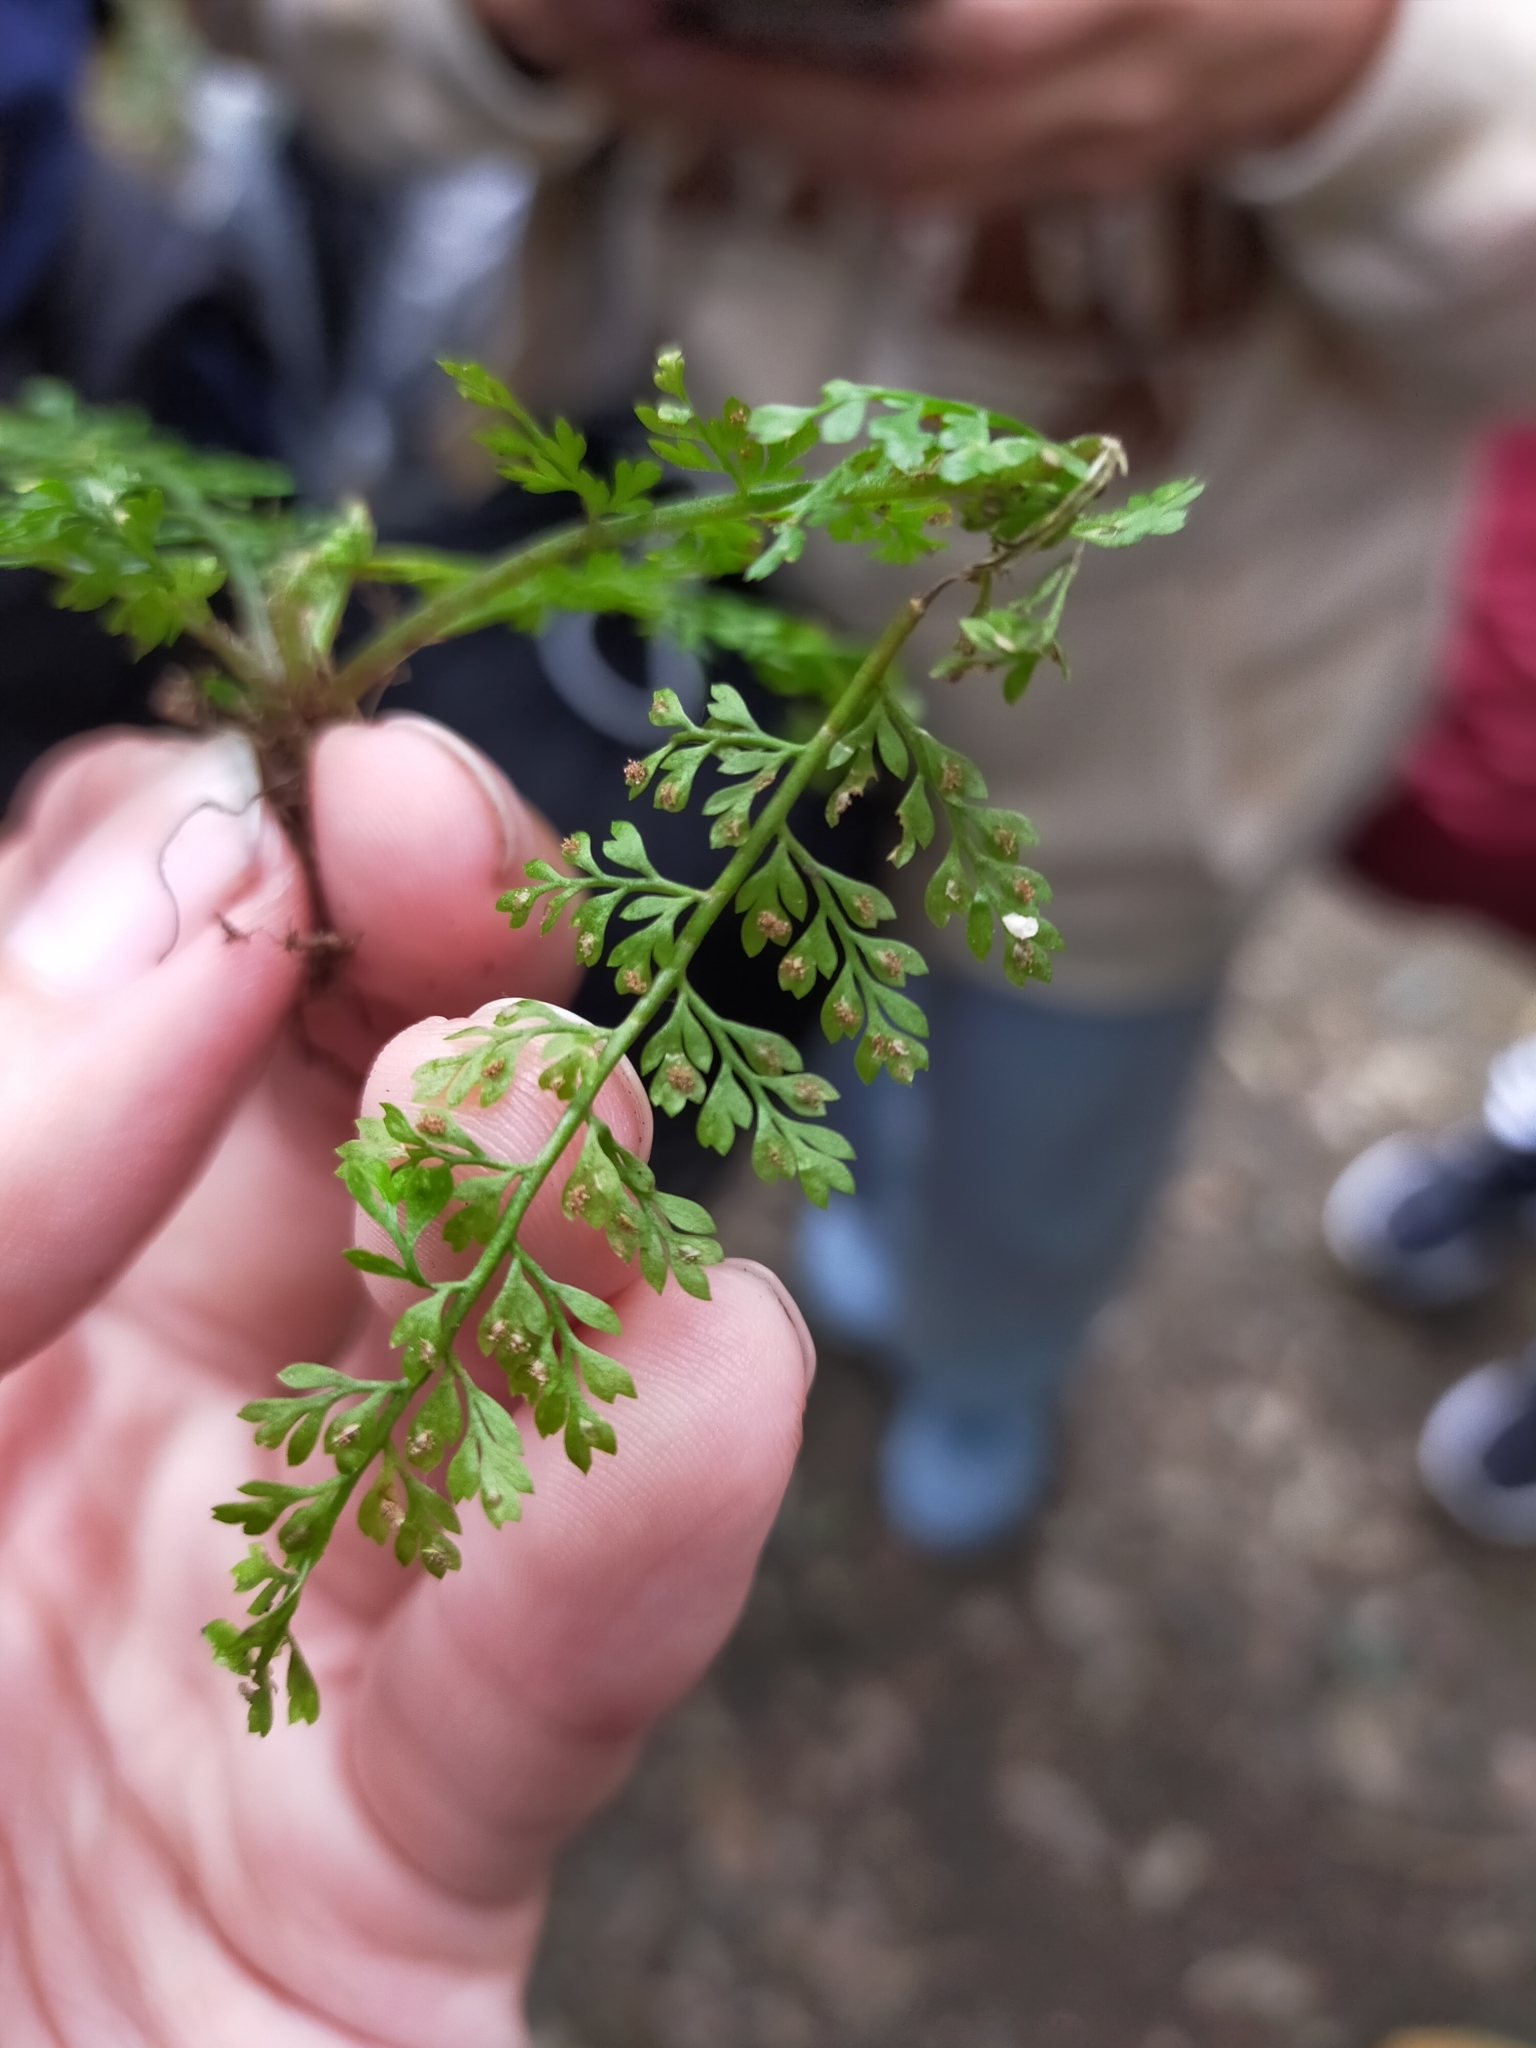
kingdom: Plantae
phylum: Tracheophyta
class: Polypodiopsida
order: Polypodiales
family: Aspleniaceae
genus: Asplenium
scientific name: Asplenium tenuifolium
